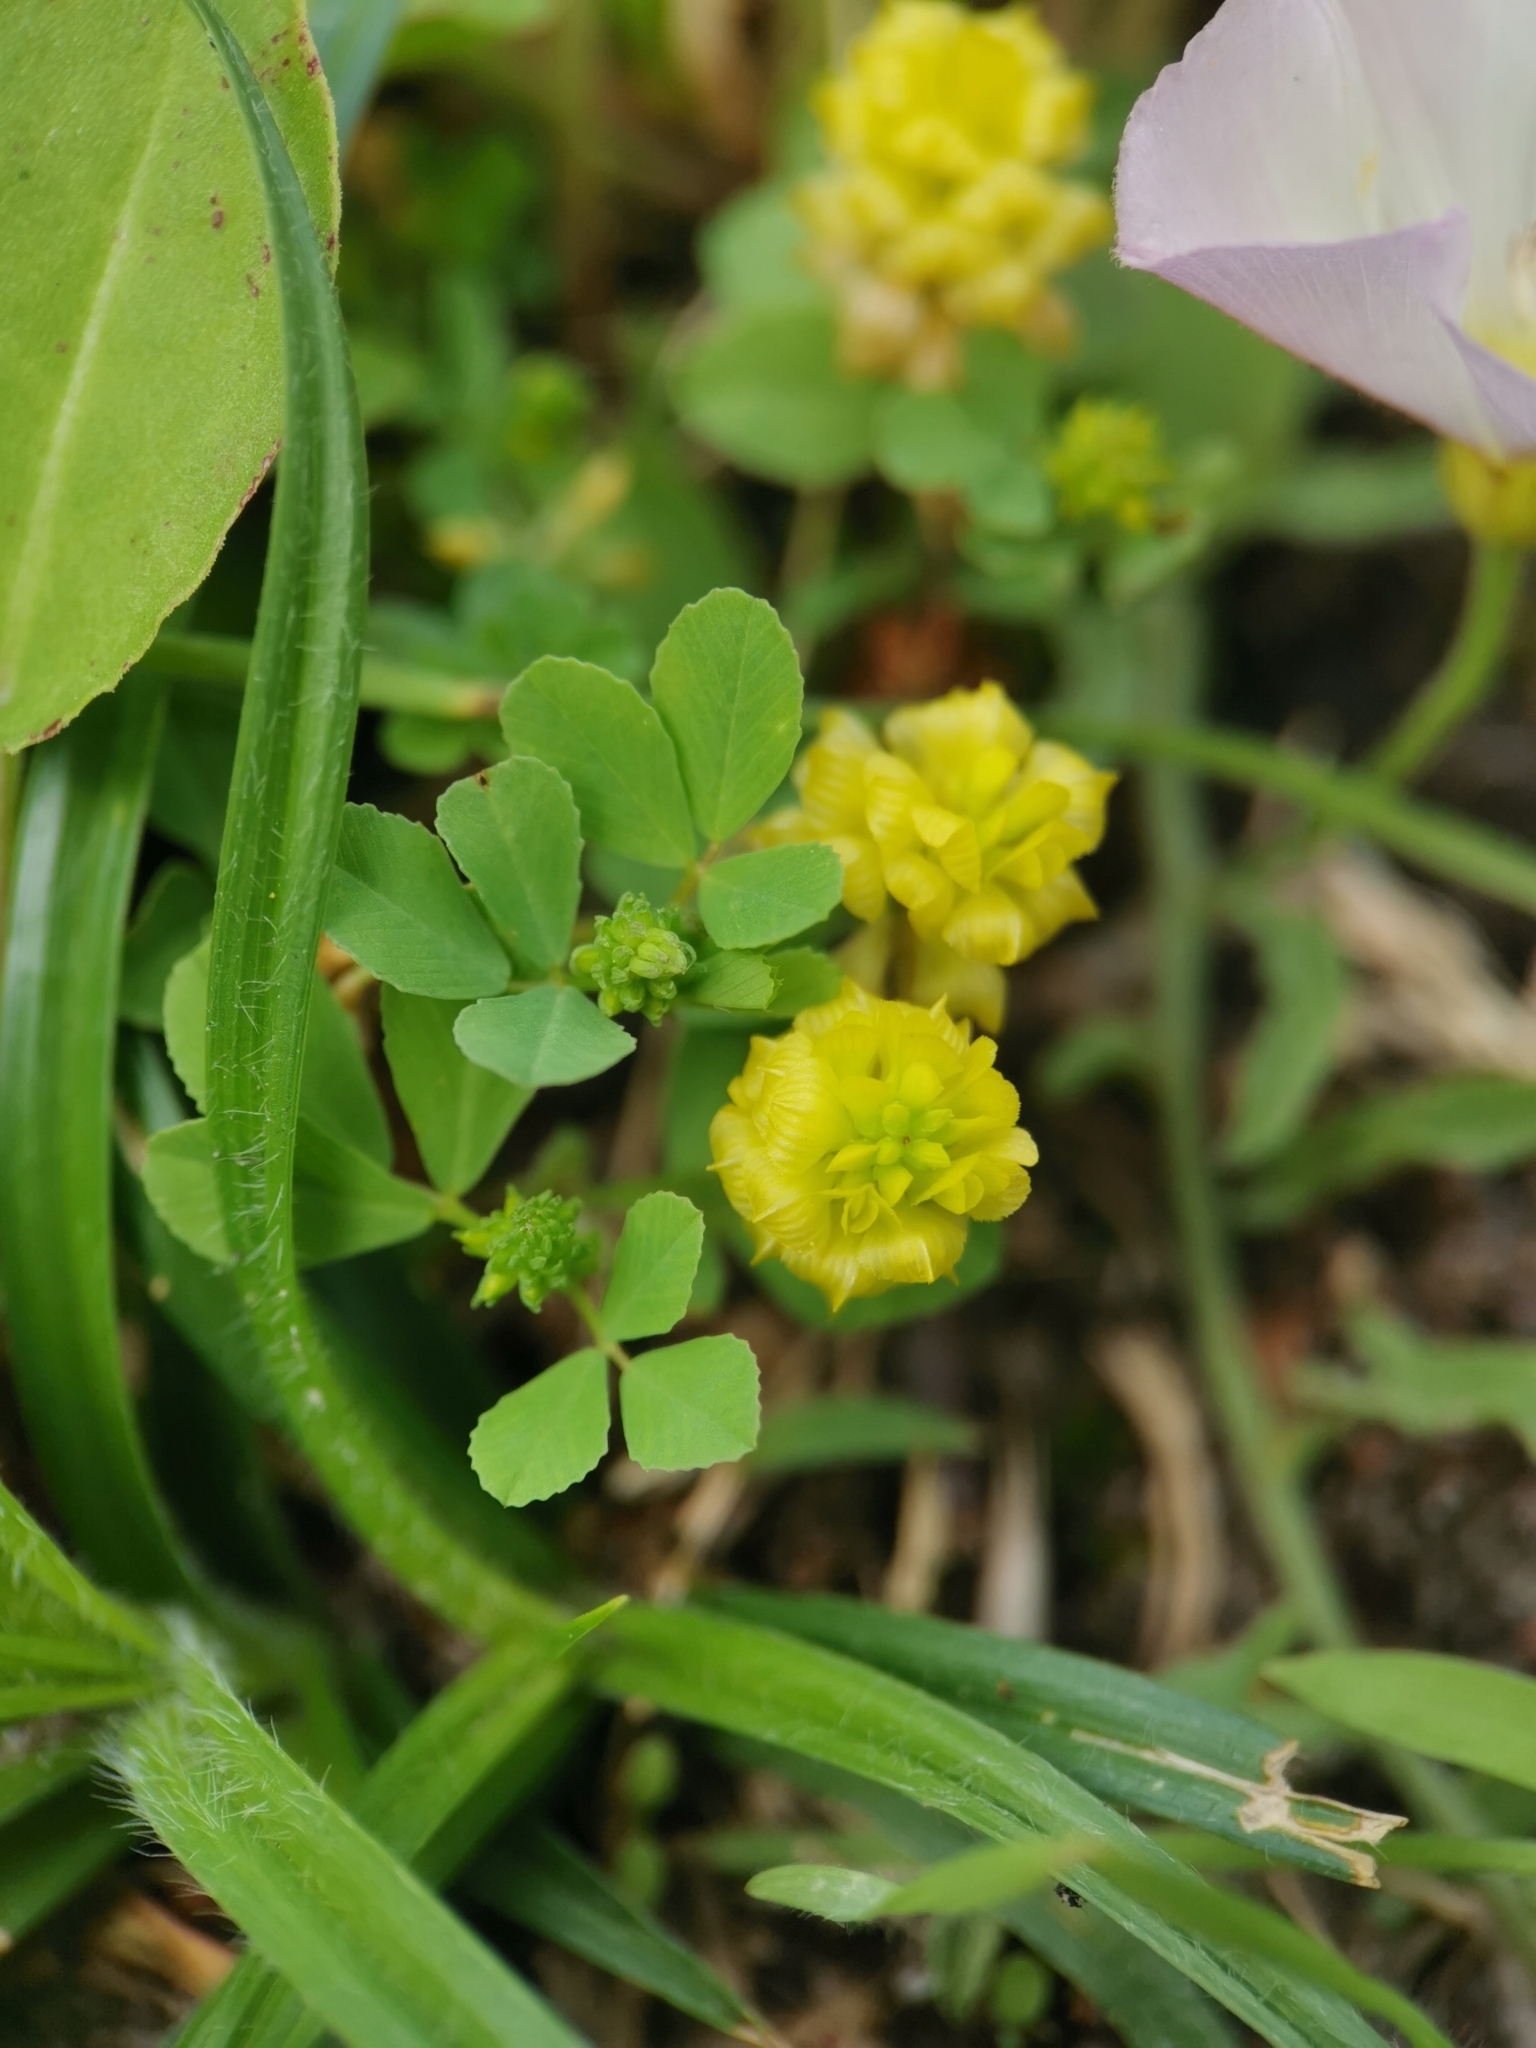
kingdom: Plantae
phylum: Tracheophyta
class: Magnoliopsida
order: Fabales
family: Fabaceae
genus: Trifolium
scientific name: Trifolium campestre
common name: Field clover
